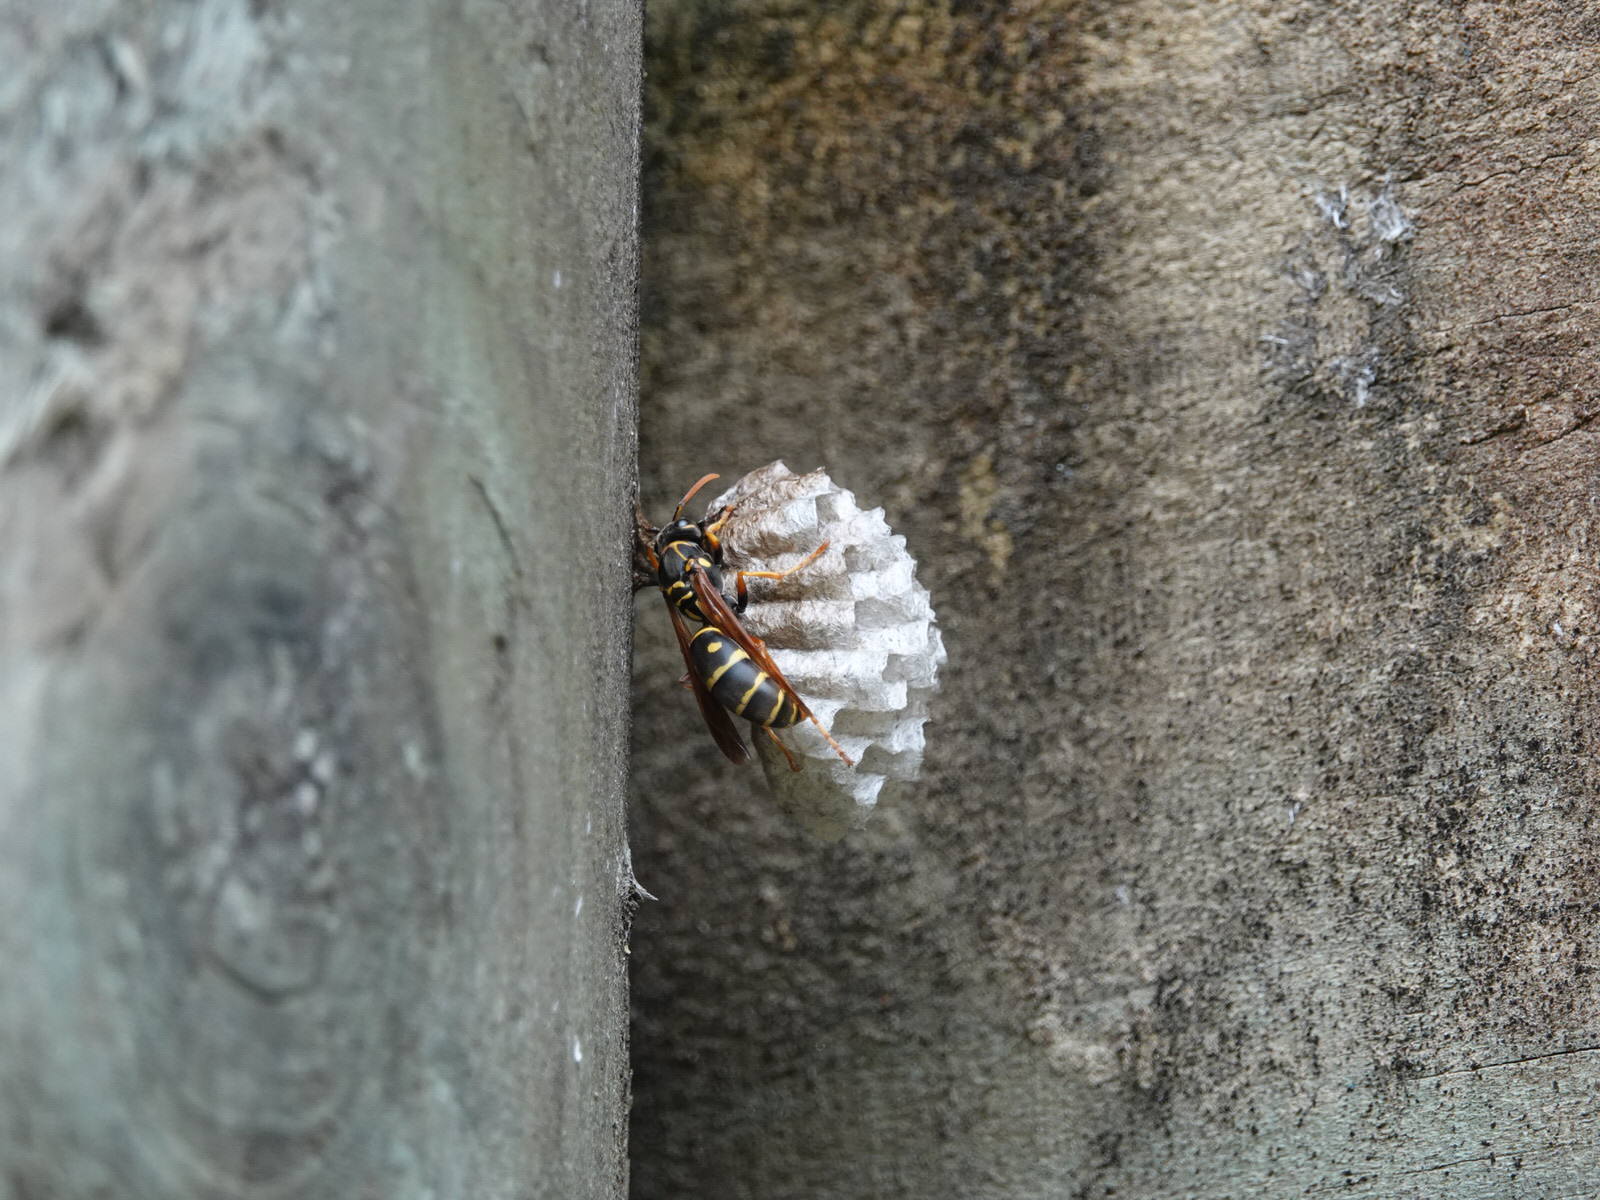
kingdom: Animalia
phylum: Arthropoda
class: Insecta
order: Hymenoptera
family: Eumenidae
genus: Polistes
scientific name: Polistes chinensis
